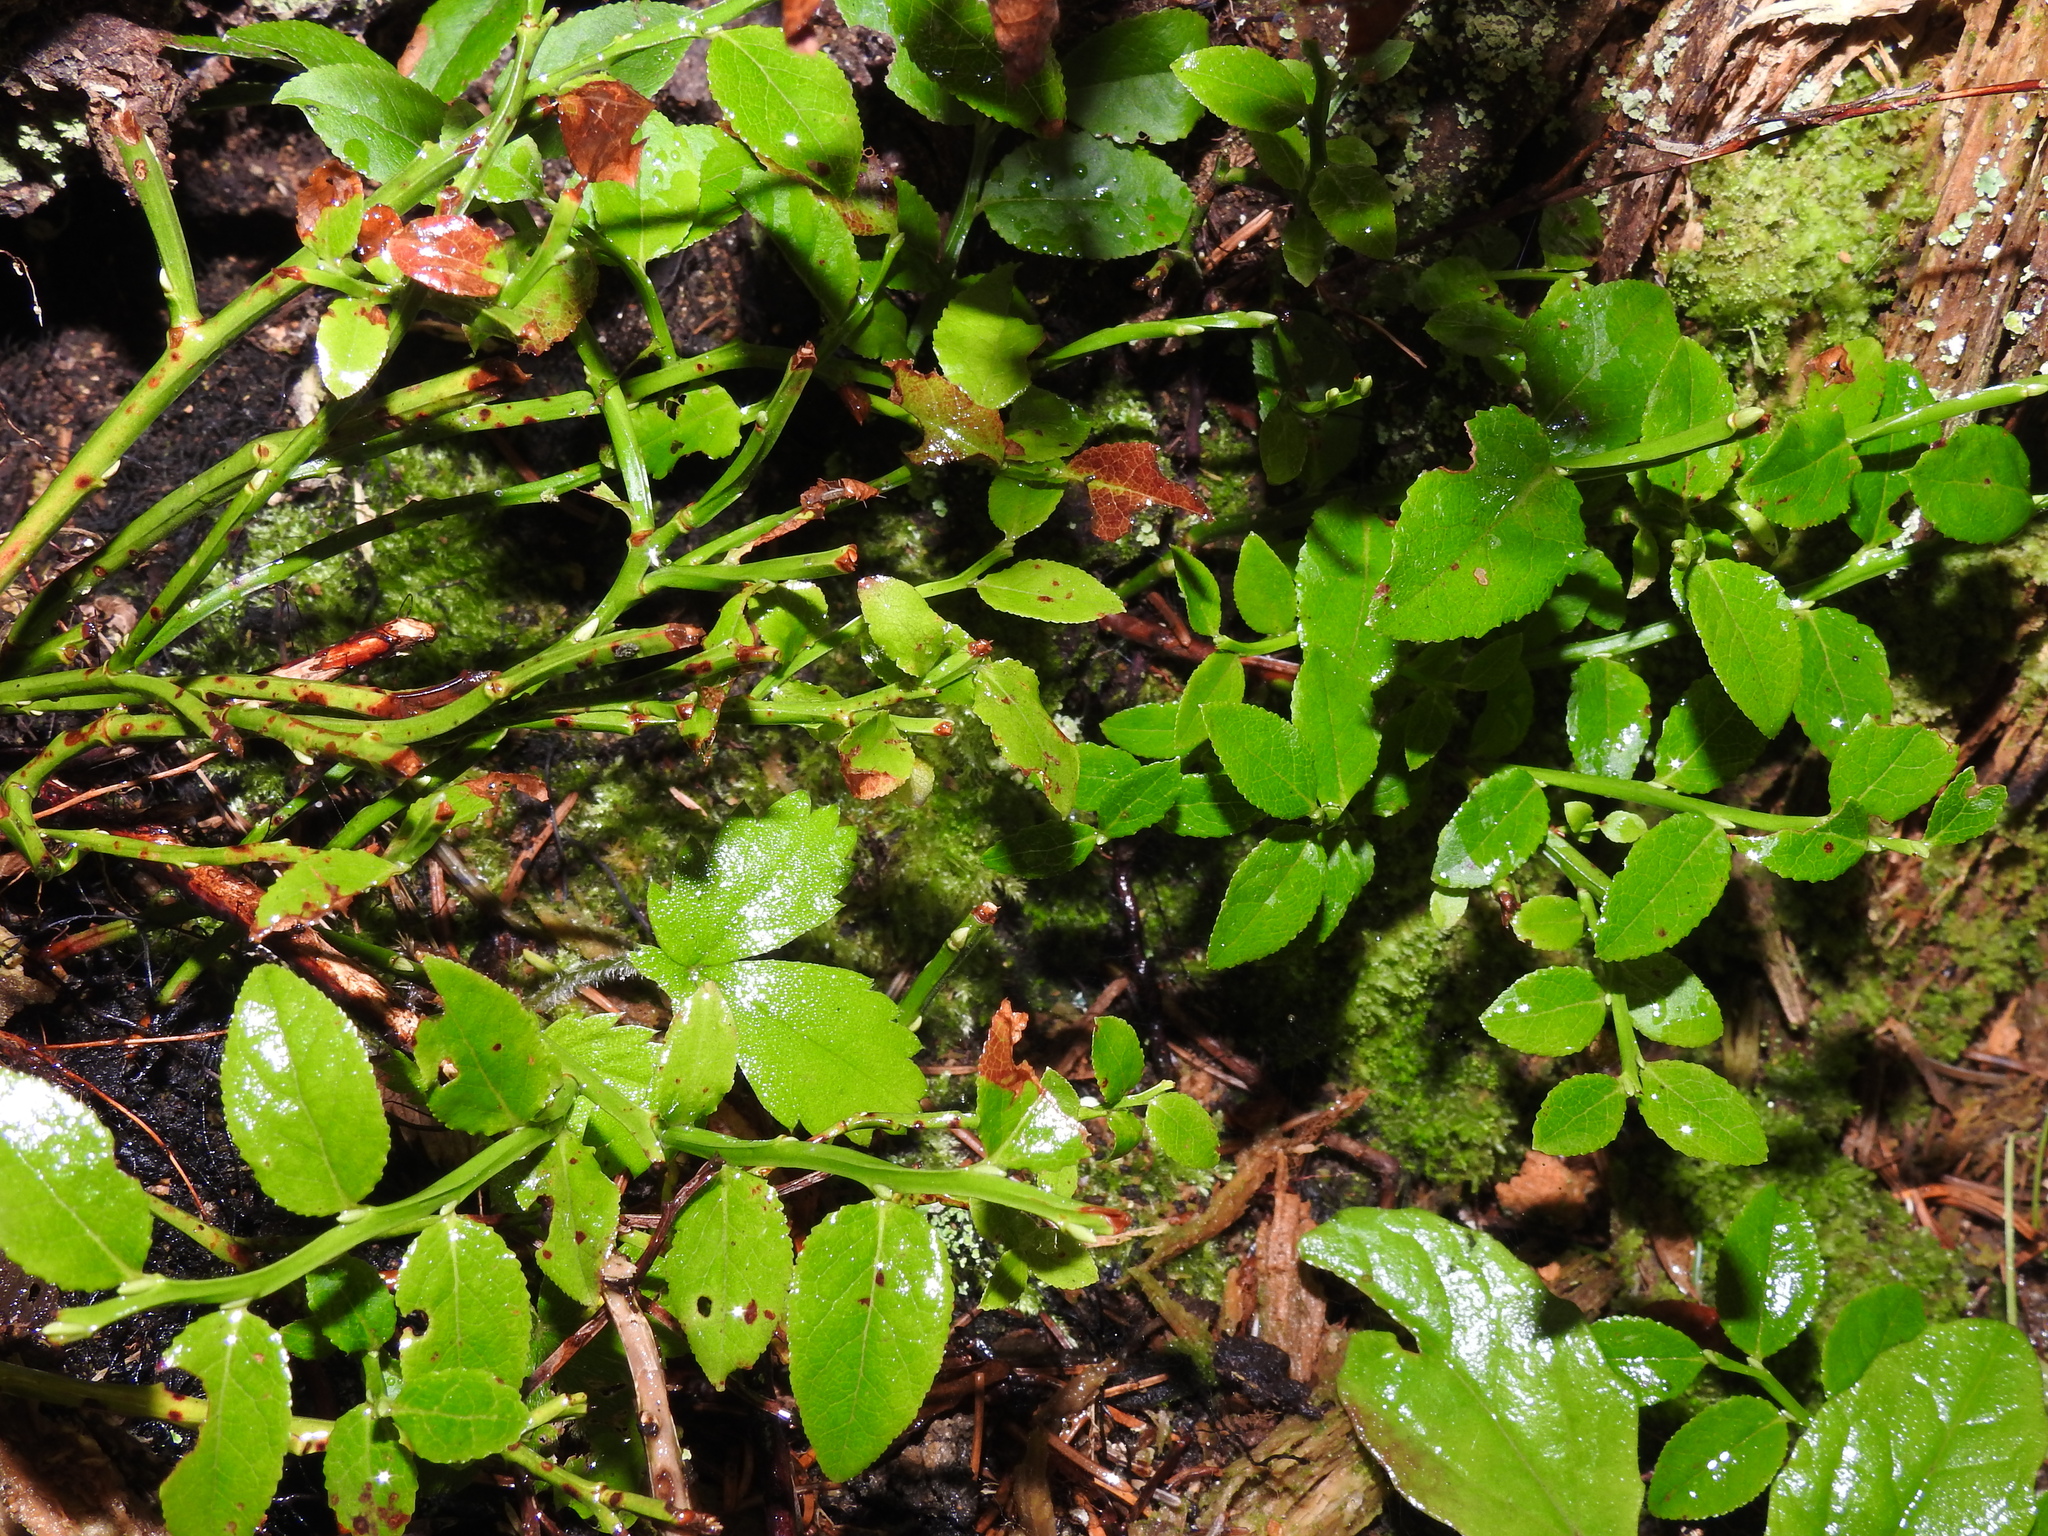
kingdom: Plantae
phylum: Tracheophyta
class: Magnoliopsida
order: Ericales
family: Ericaceae
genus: Vaccinium
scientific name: Vaccinium myrtillus
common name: Bilberry
